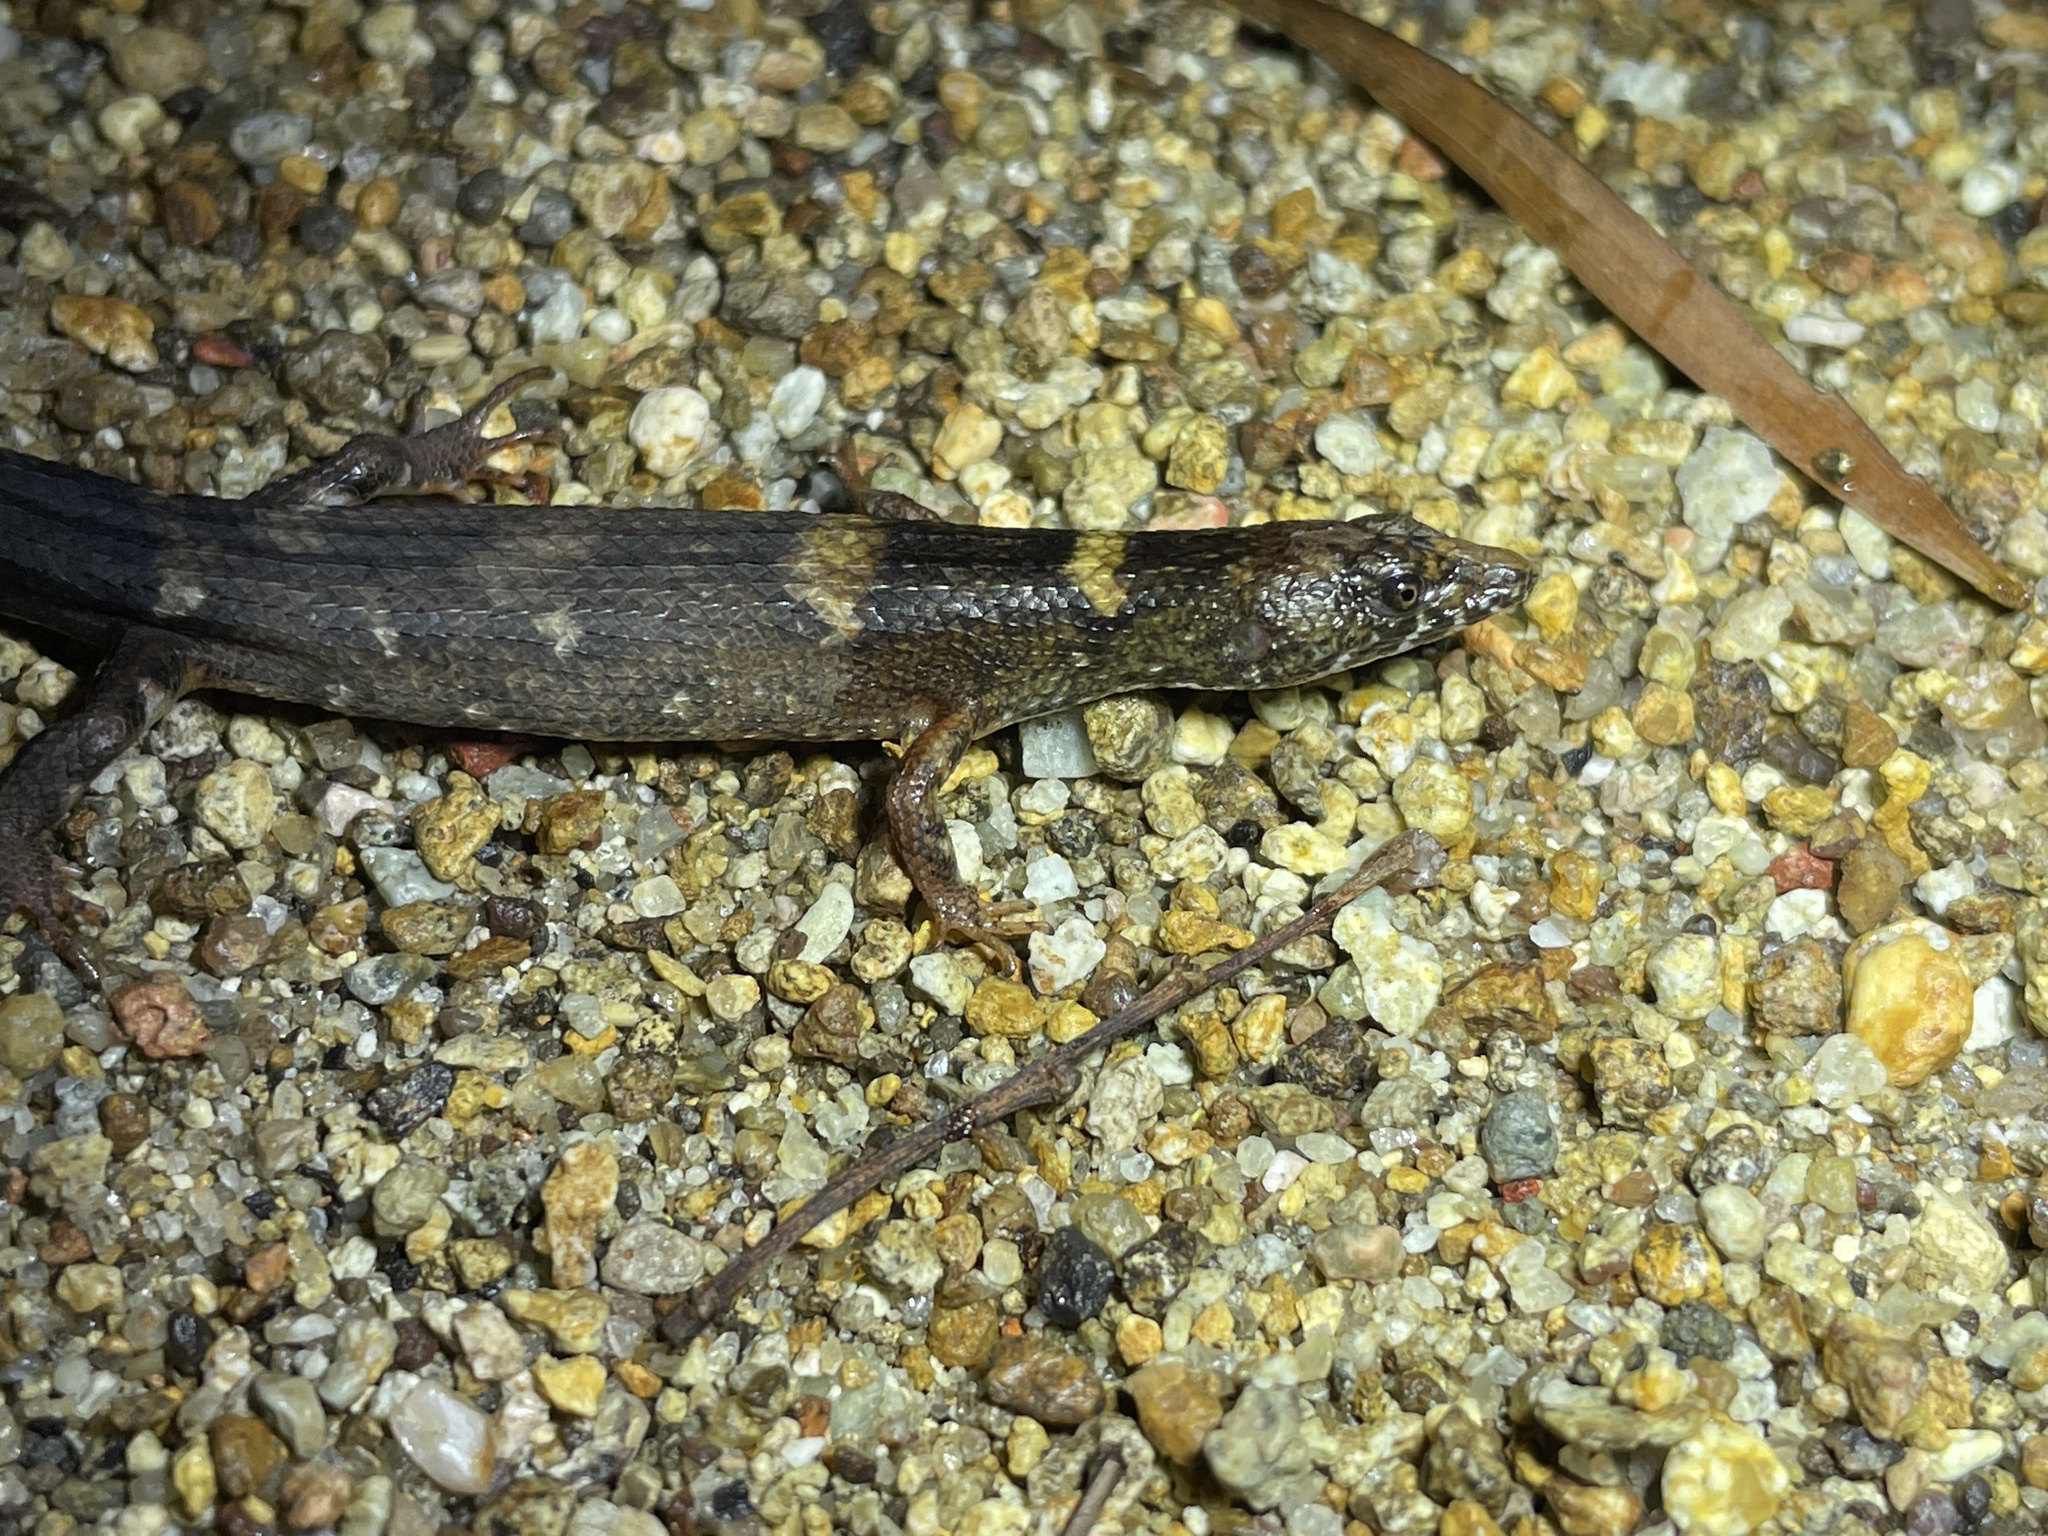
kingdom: Animalia
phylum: Chordata
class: Squamata
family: Scincidae
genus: Tropidophorus
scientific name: Tropidophorus sinicus
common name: Chinese water skink
